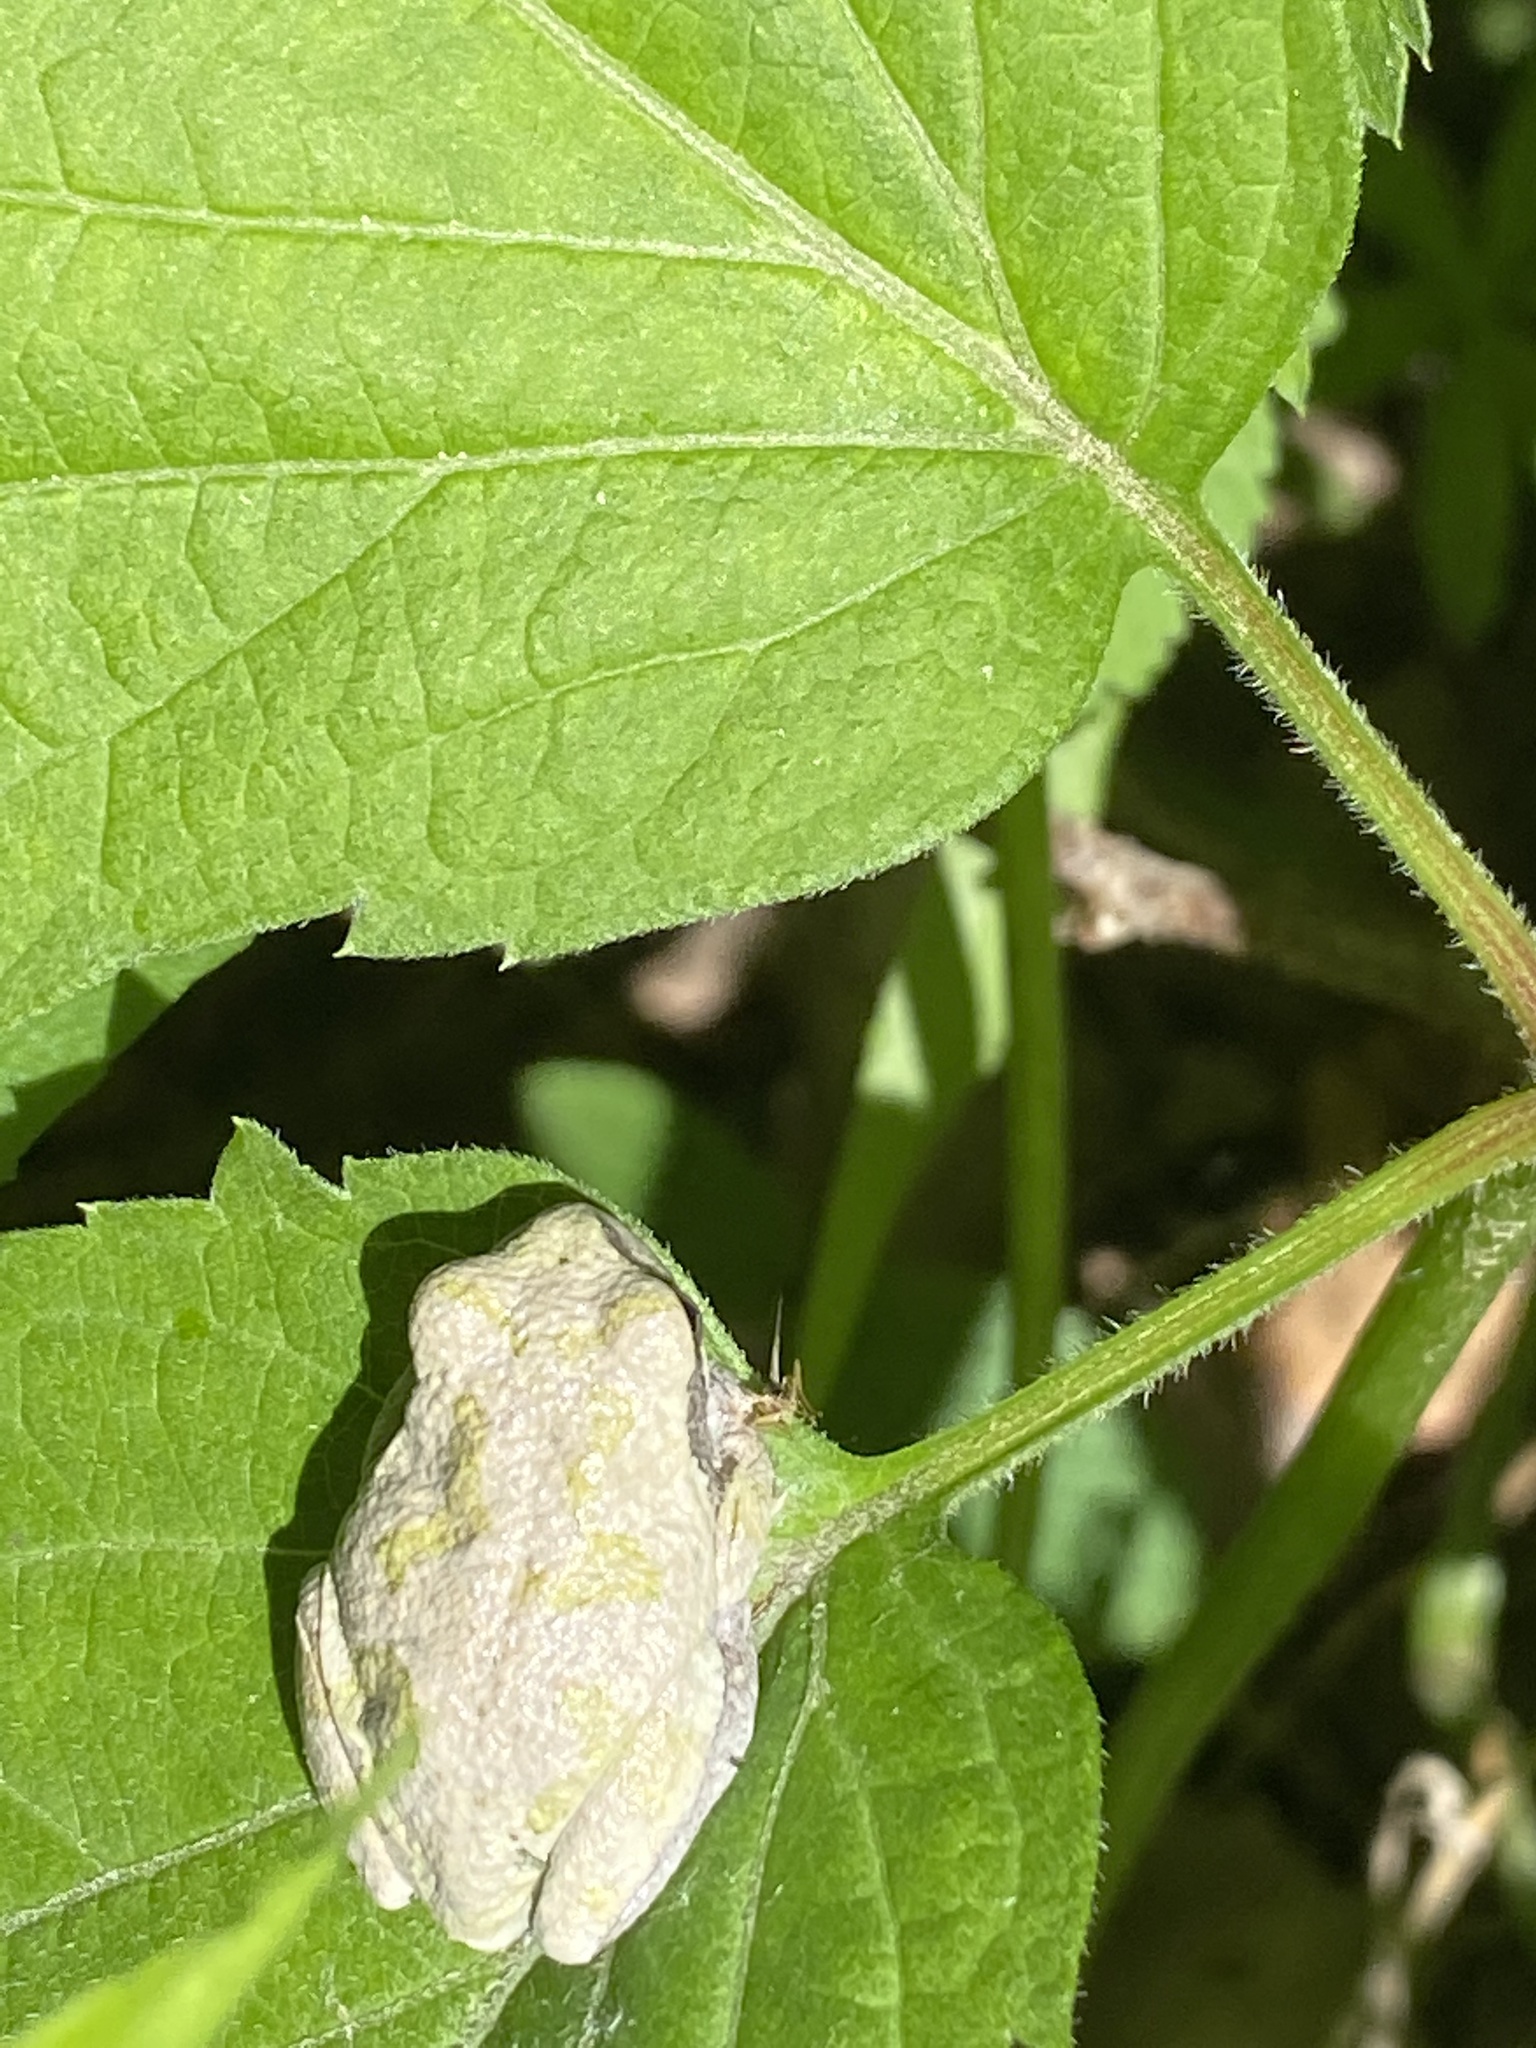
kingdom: Animalia
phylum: Chordata
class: Amphibia
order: Anura
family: Hylidae
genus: Hyla
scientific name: Hyla
